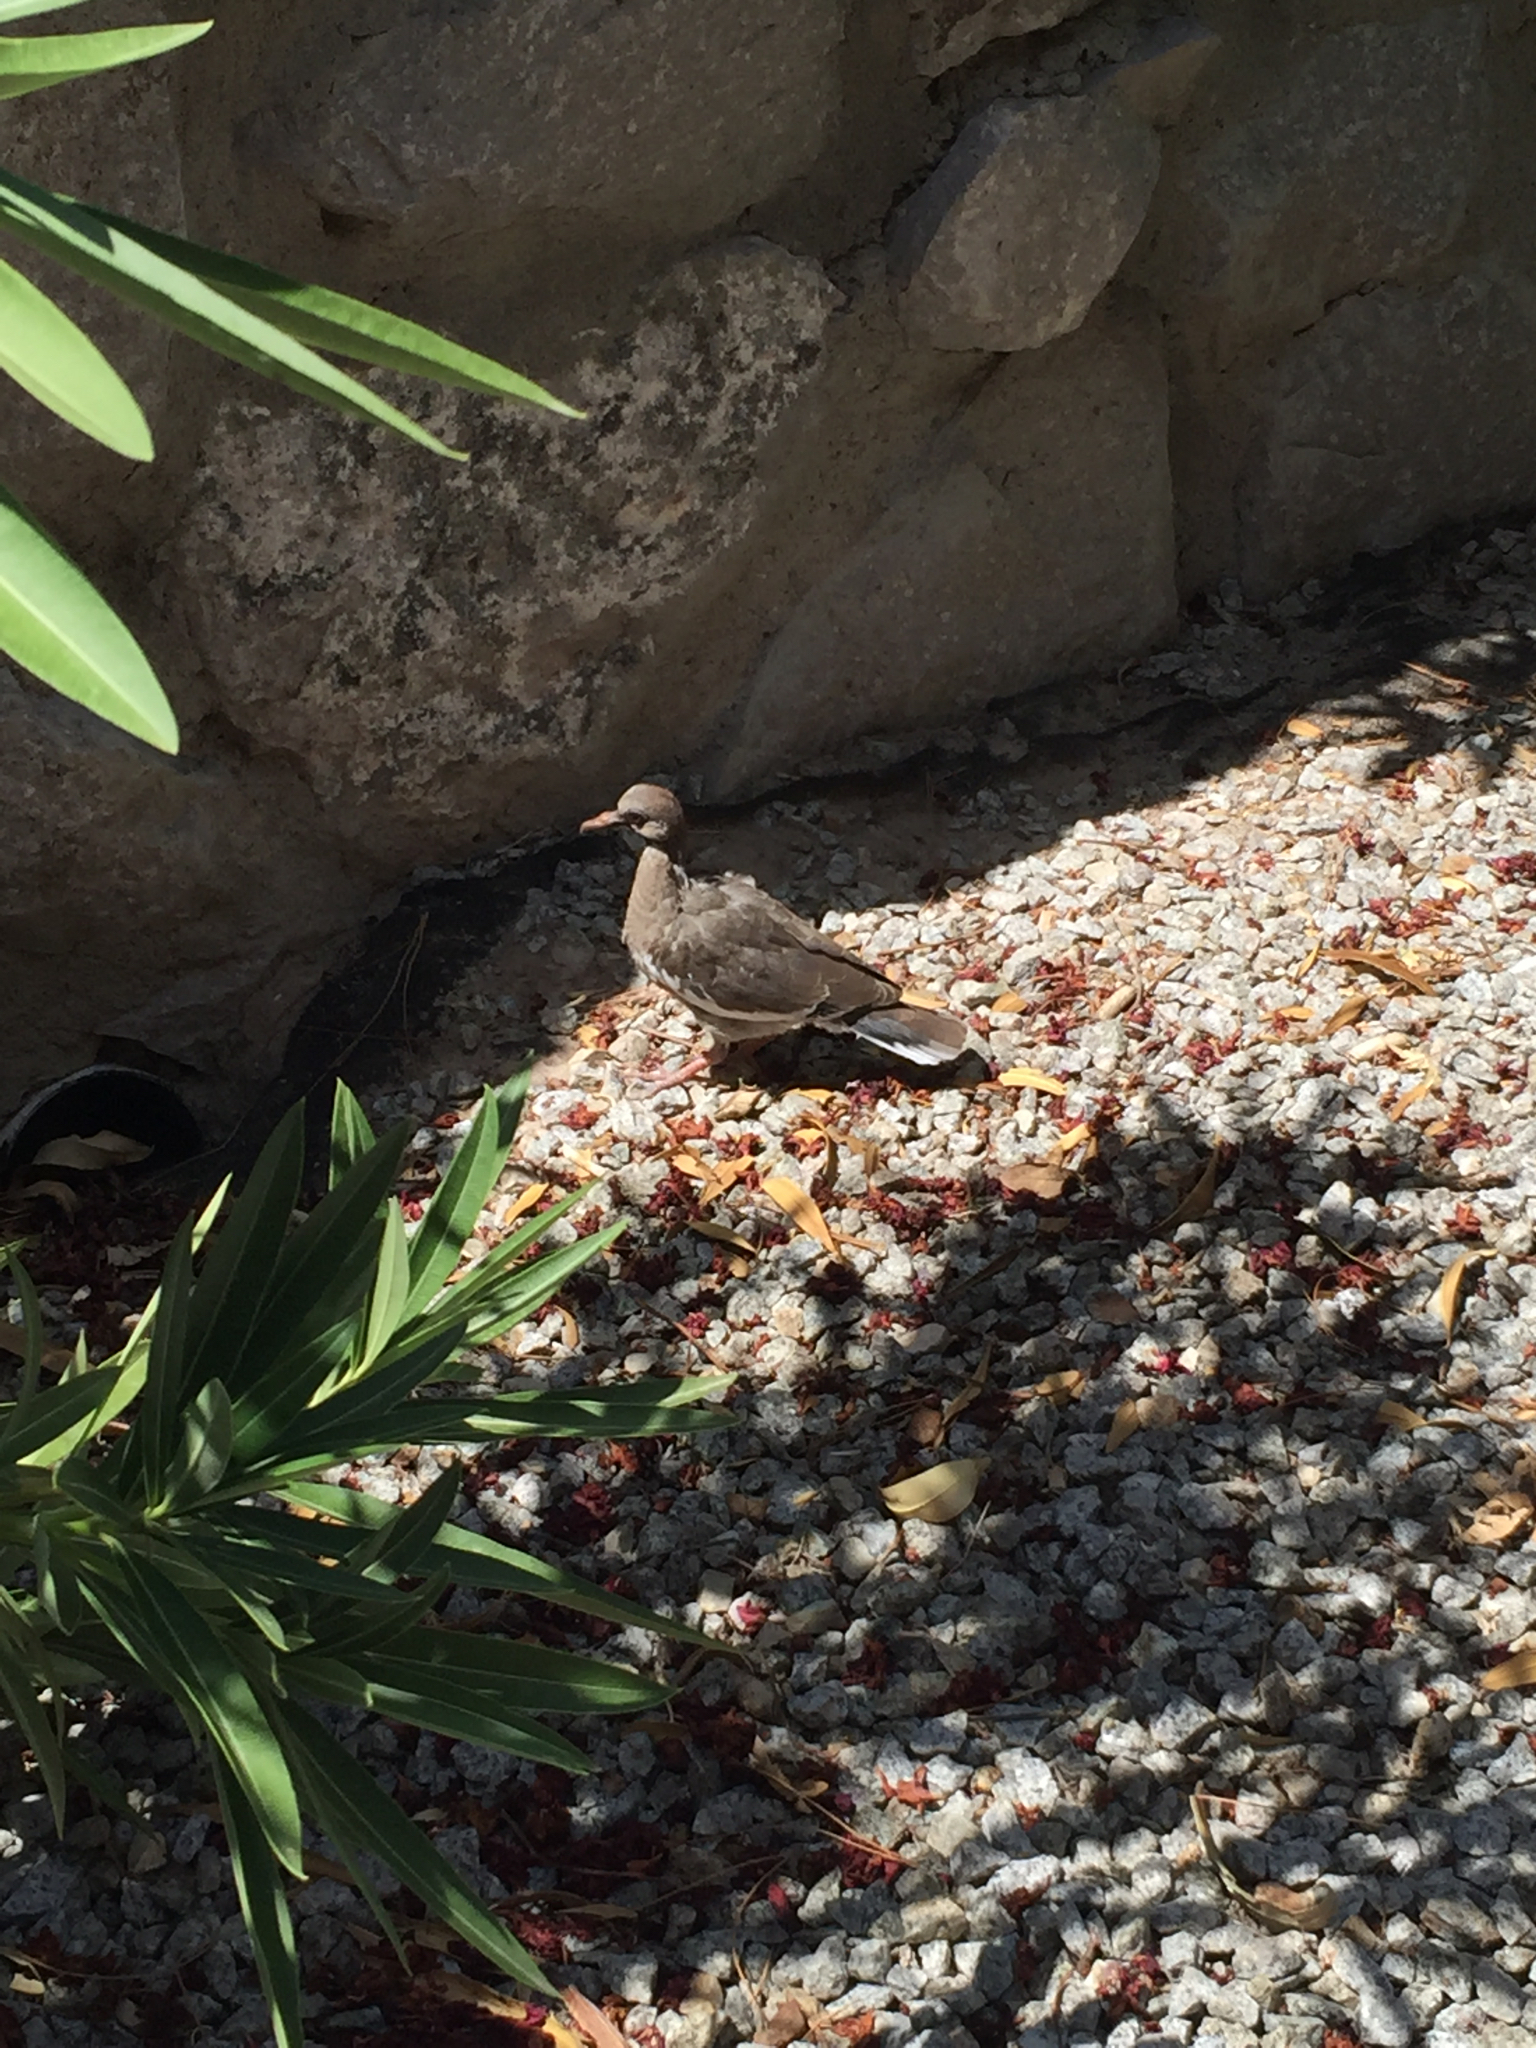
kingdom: Animalia
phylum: Chordata
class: Aves
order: Columbiformes
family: Columbidae
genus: Zenaida
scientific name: Zenaida asiatica
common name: White-winged dove
